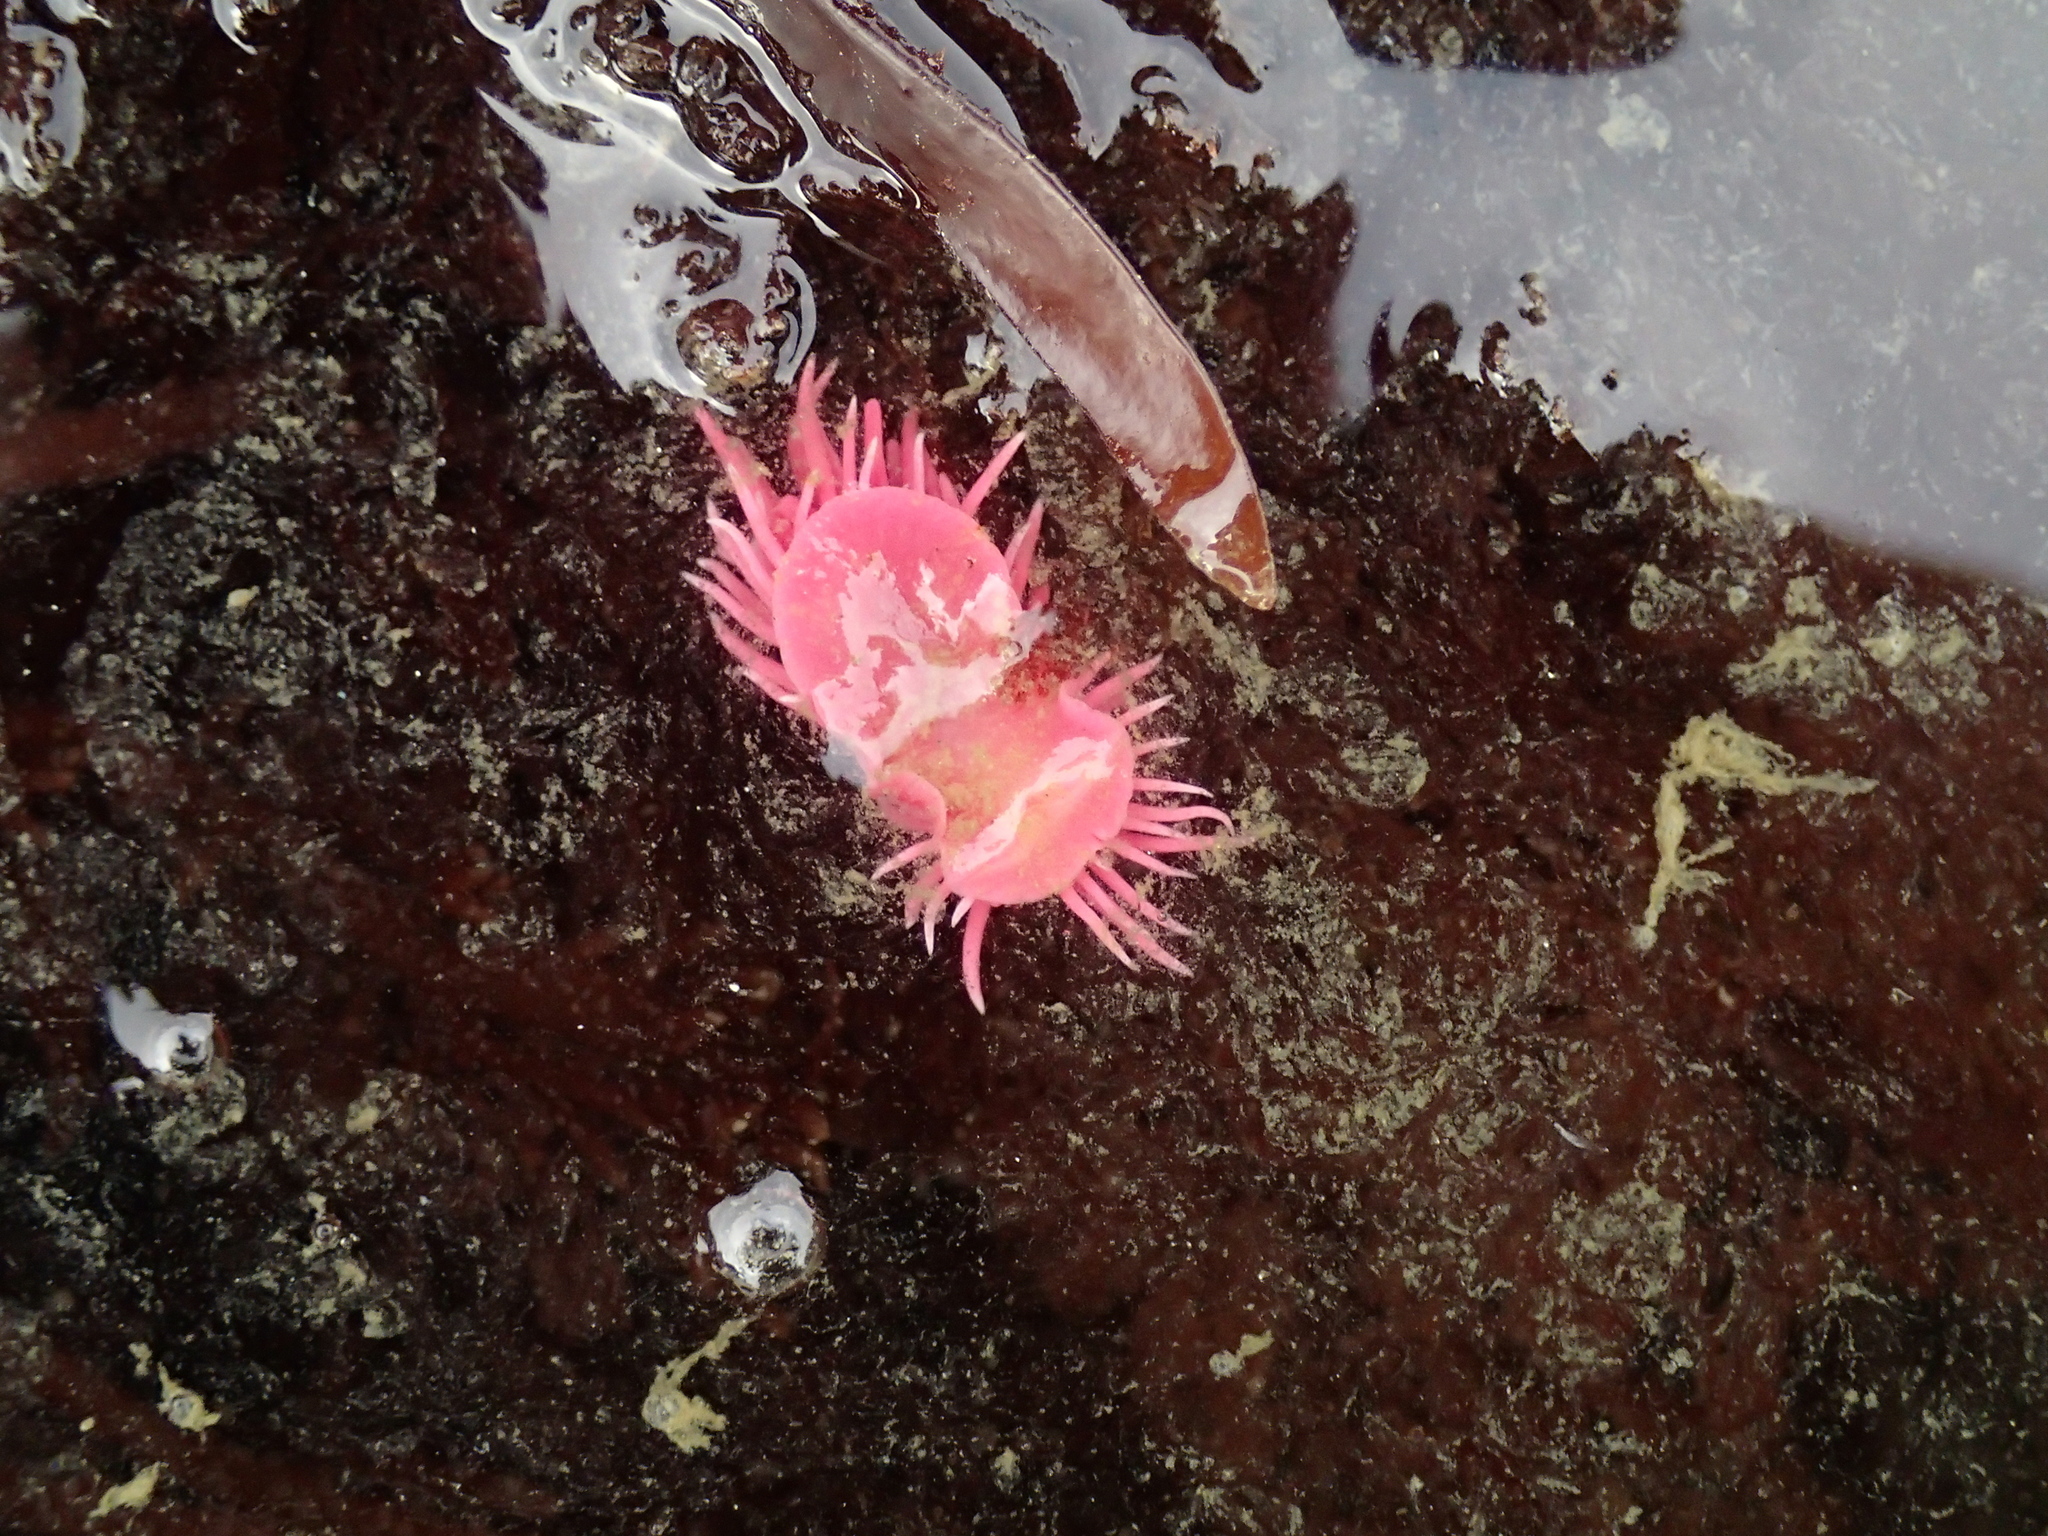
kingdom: Animalia
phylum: Mollusca
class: Gastropoda
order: Nudibranchia
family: Goniodorididae
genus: Okenia
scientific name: Okenia
